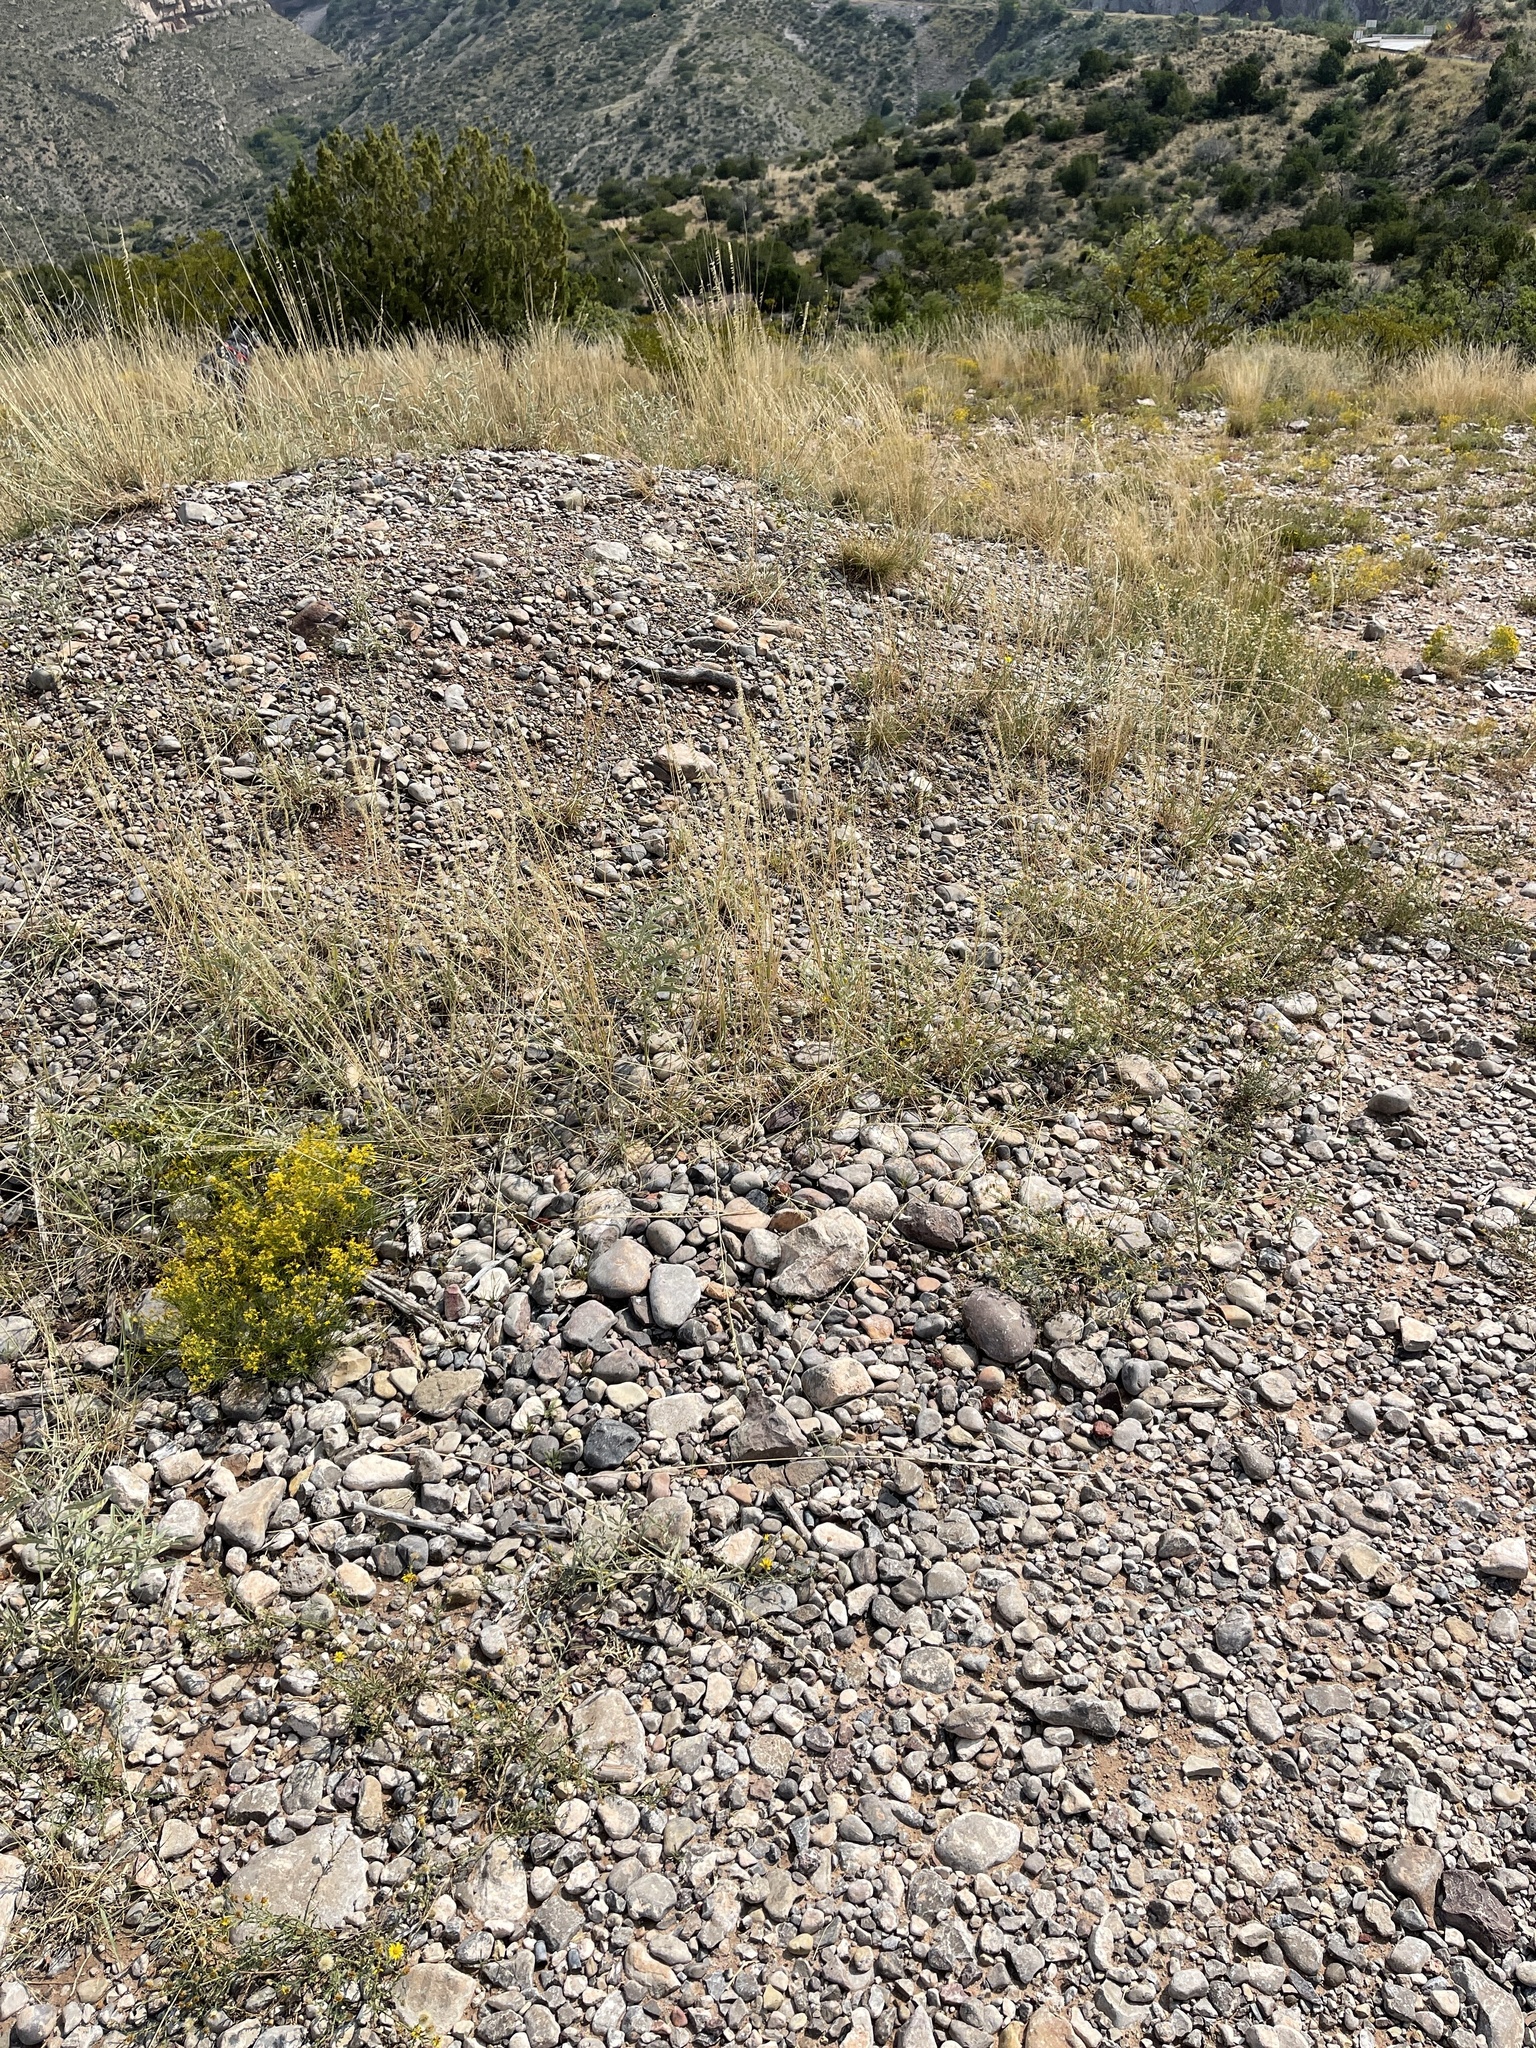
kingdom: Plantae
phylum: Tracheophyta
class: Liliopsida
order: Poales
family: Poaceae
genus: Bouteloua
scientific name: Bouteloua curtipendula
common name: Side-oats grama
